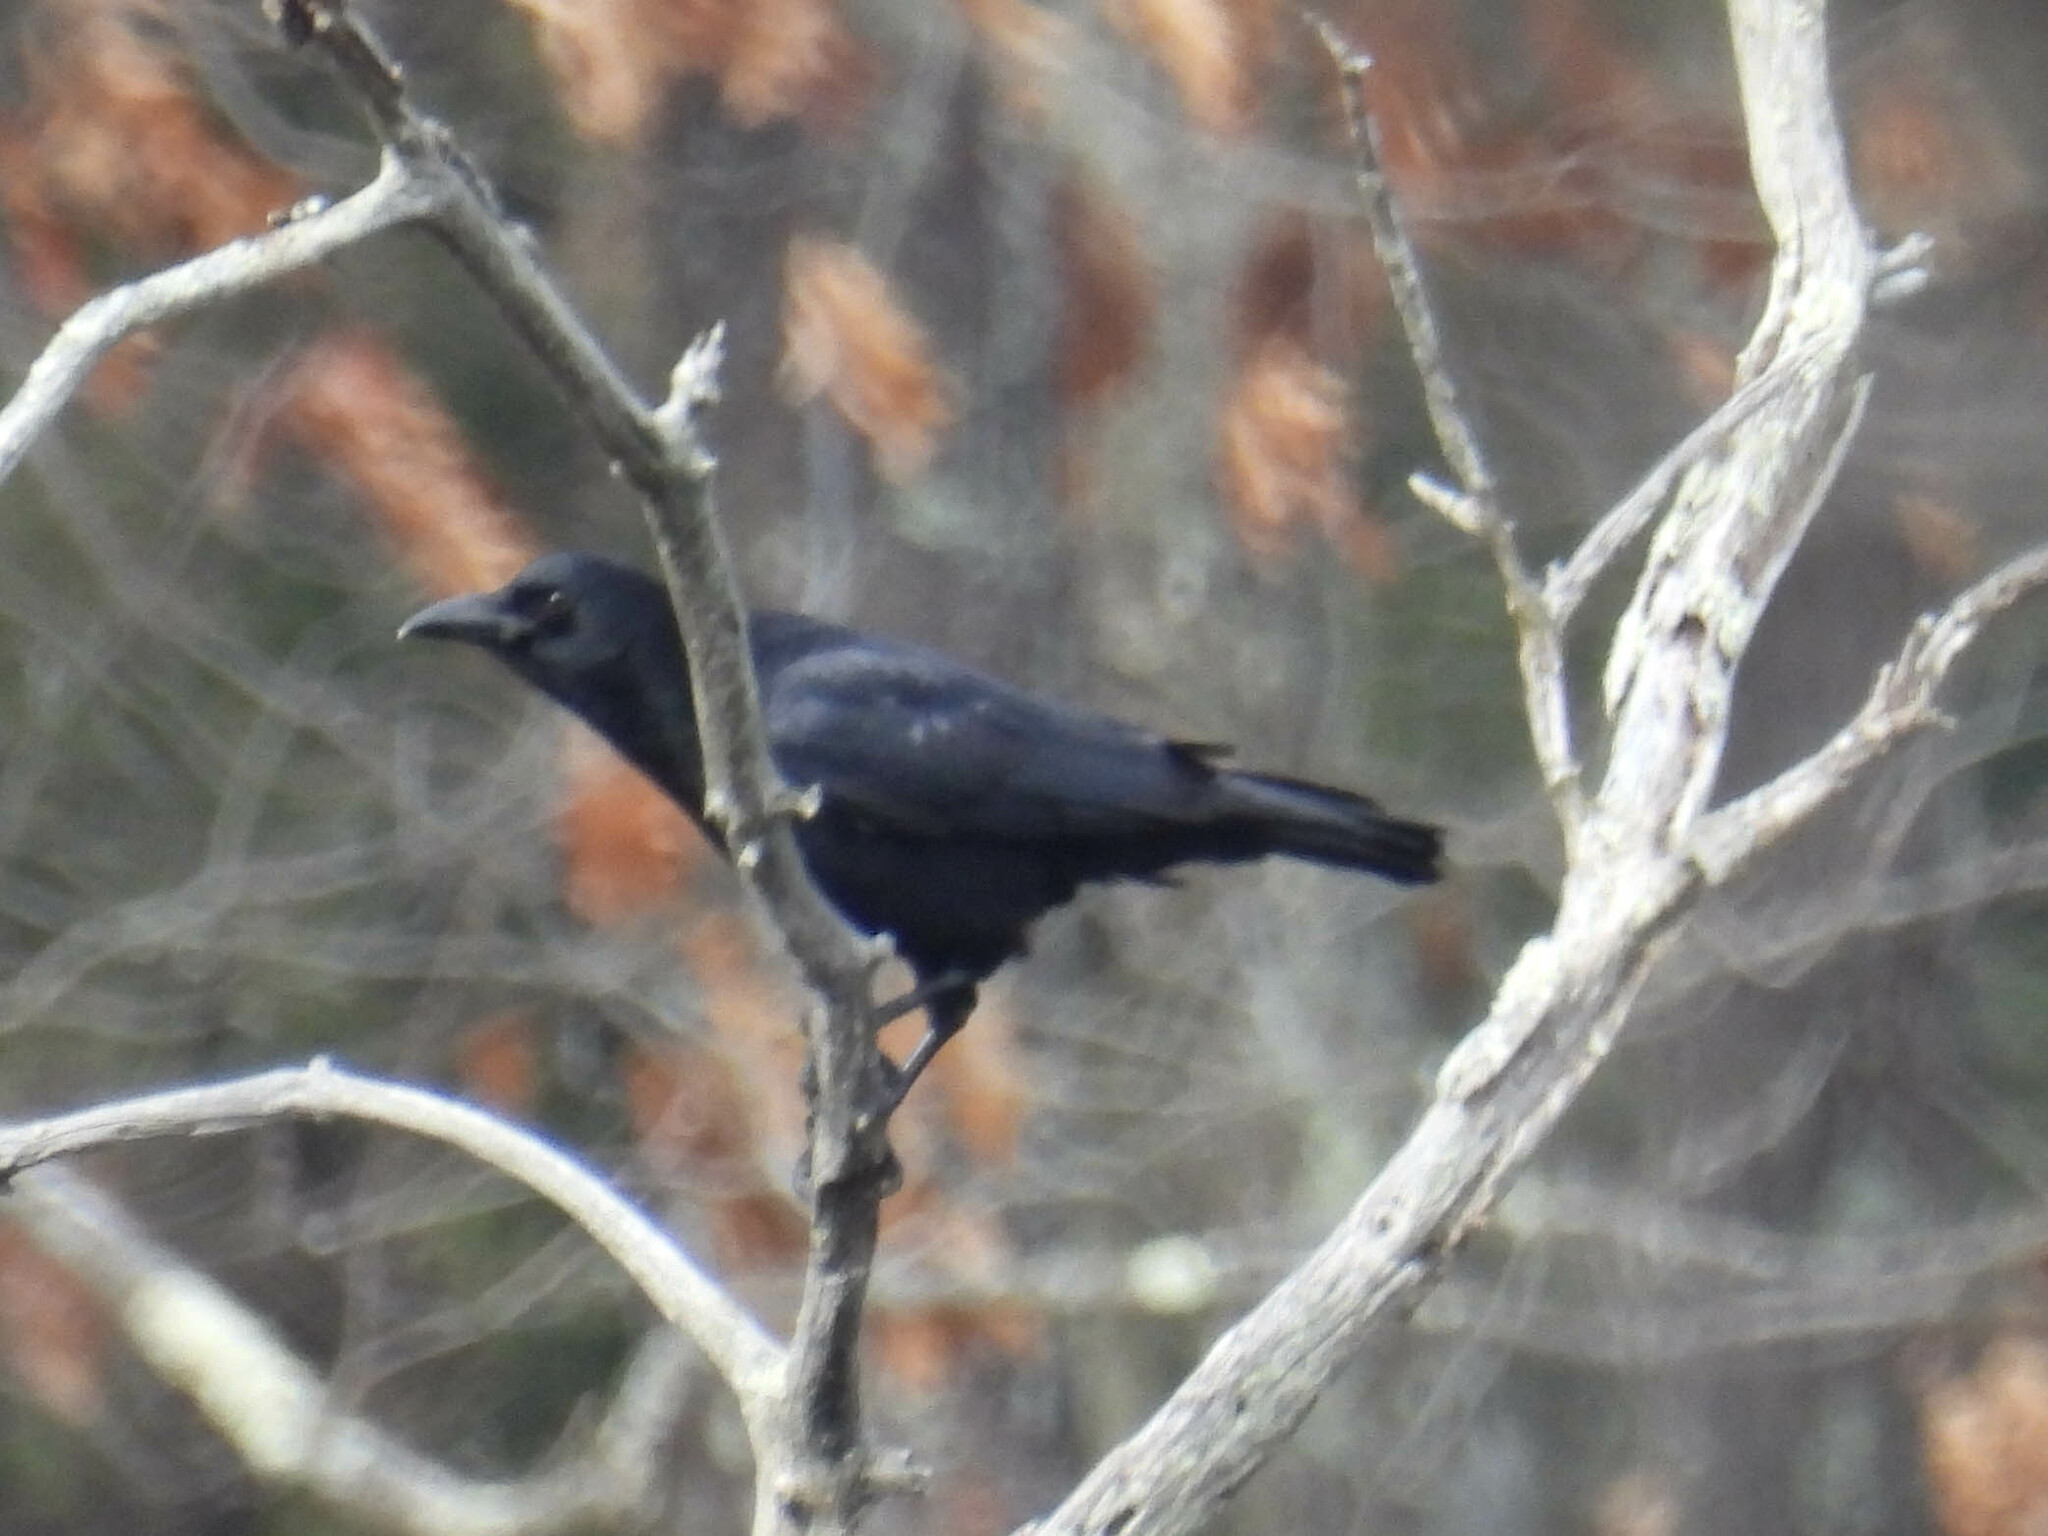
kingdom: Animalia
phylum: Chordata
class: Aves
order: Passeriformes
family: Corvidae
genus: Corvus
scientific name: Corvus brachyrhynchos
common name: American crow
